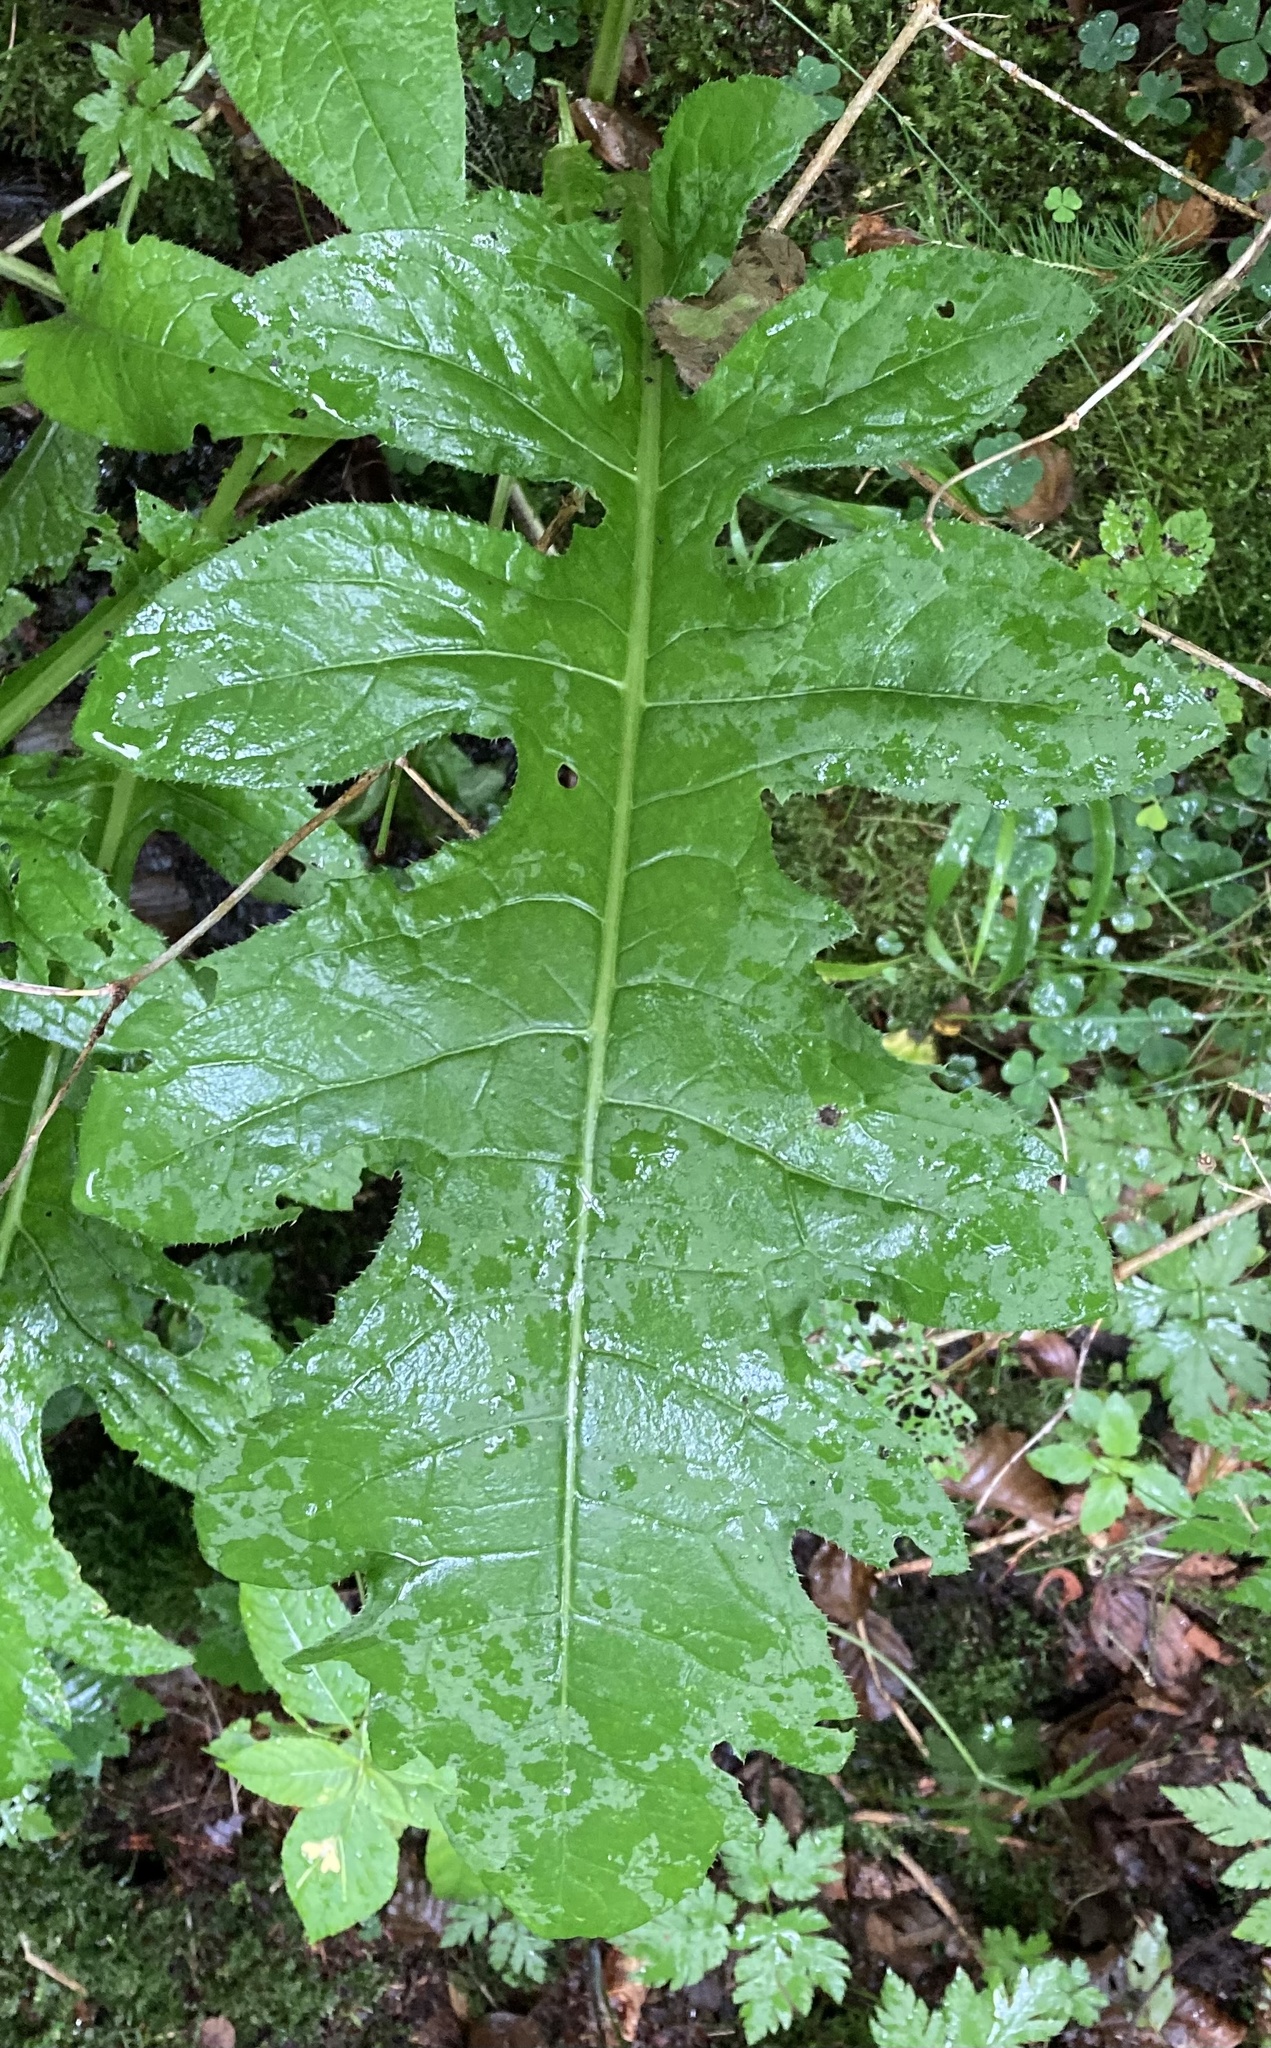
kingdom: Plantae
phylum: Tracheophyta
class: Magnoliopsida
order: Asterales
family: Asteraceae
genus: Cirsium
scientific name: Cirsium oleraceum
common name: Cabbage thistle
